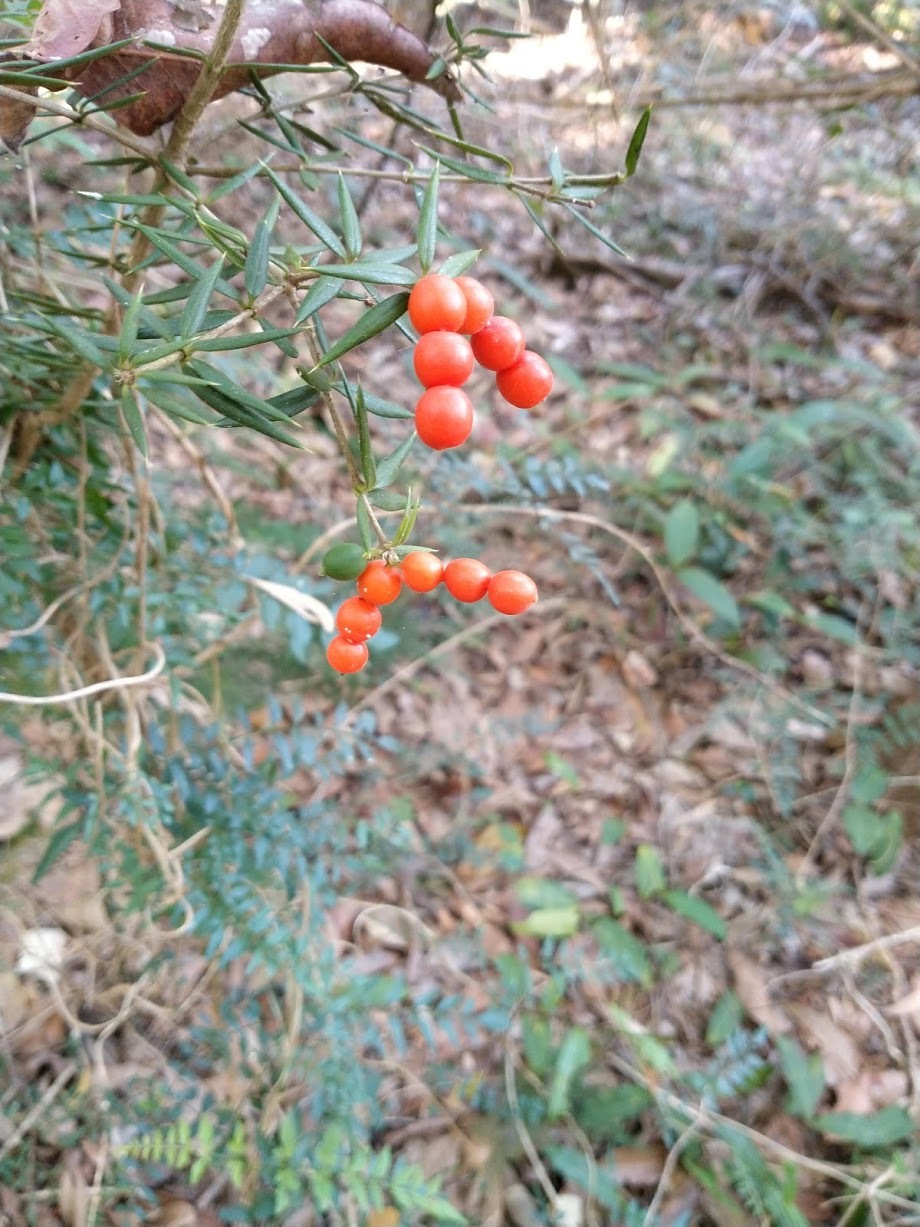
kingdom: Plantae
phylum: Tracheophyta
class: Magnoliopsida
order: Gentianales
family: Apocynaceae
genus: Alyxia
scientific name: Alyxia ruscifolia
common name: Chainfruit
